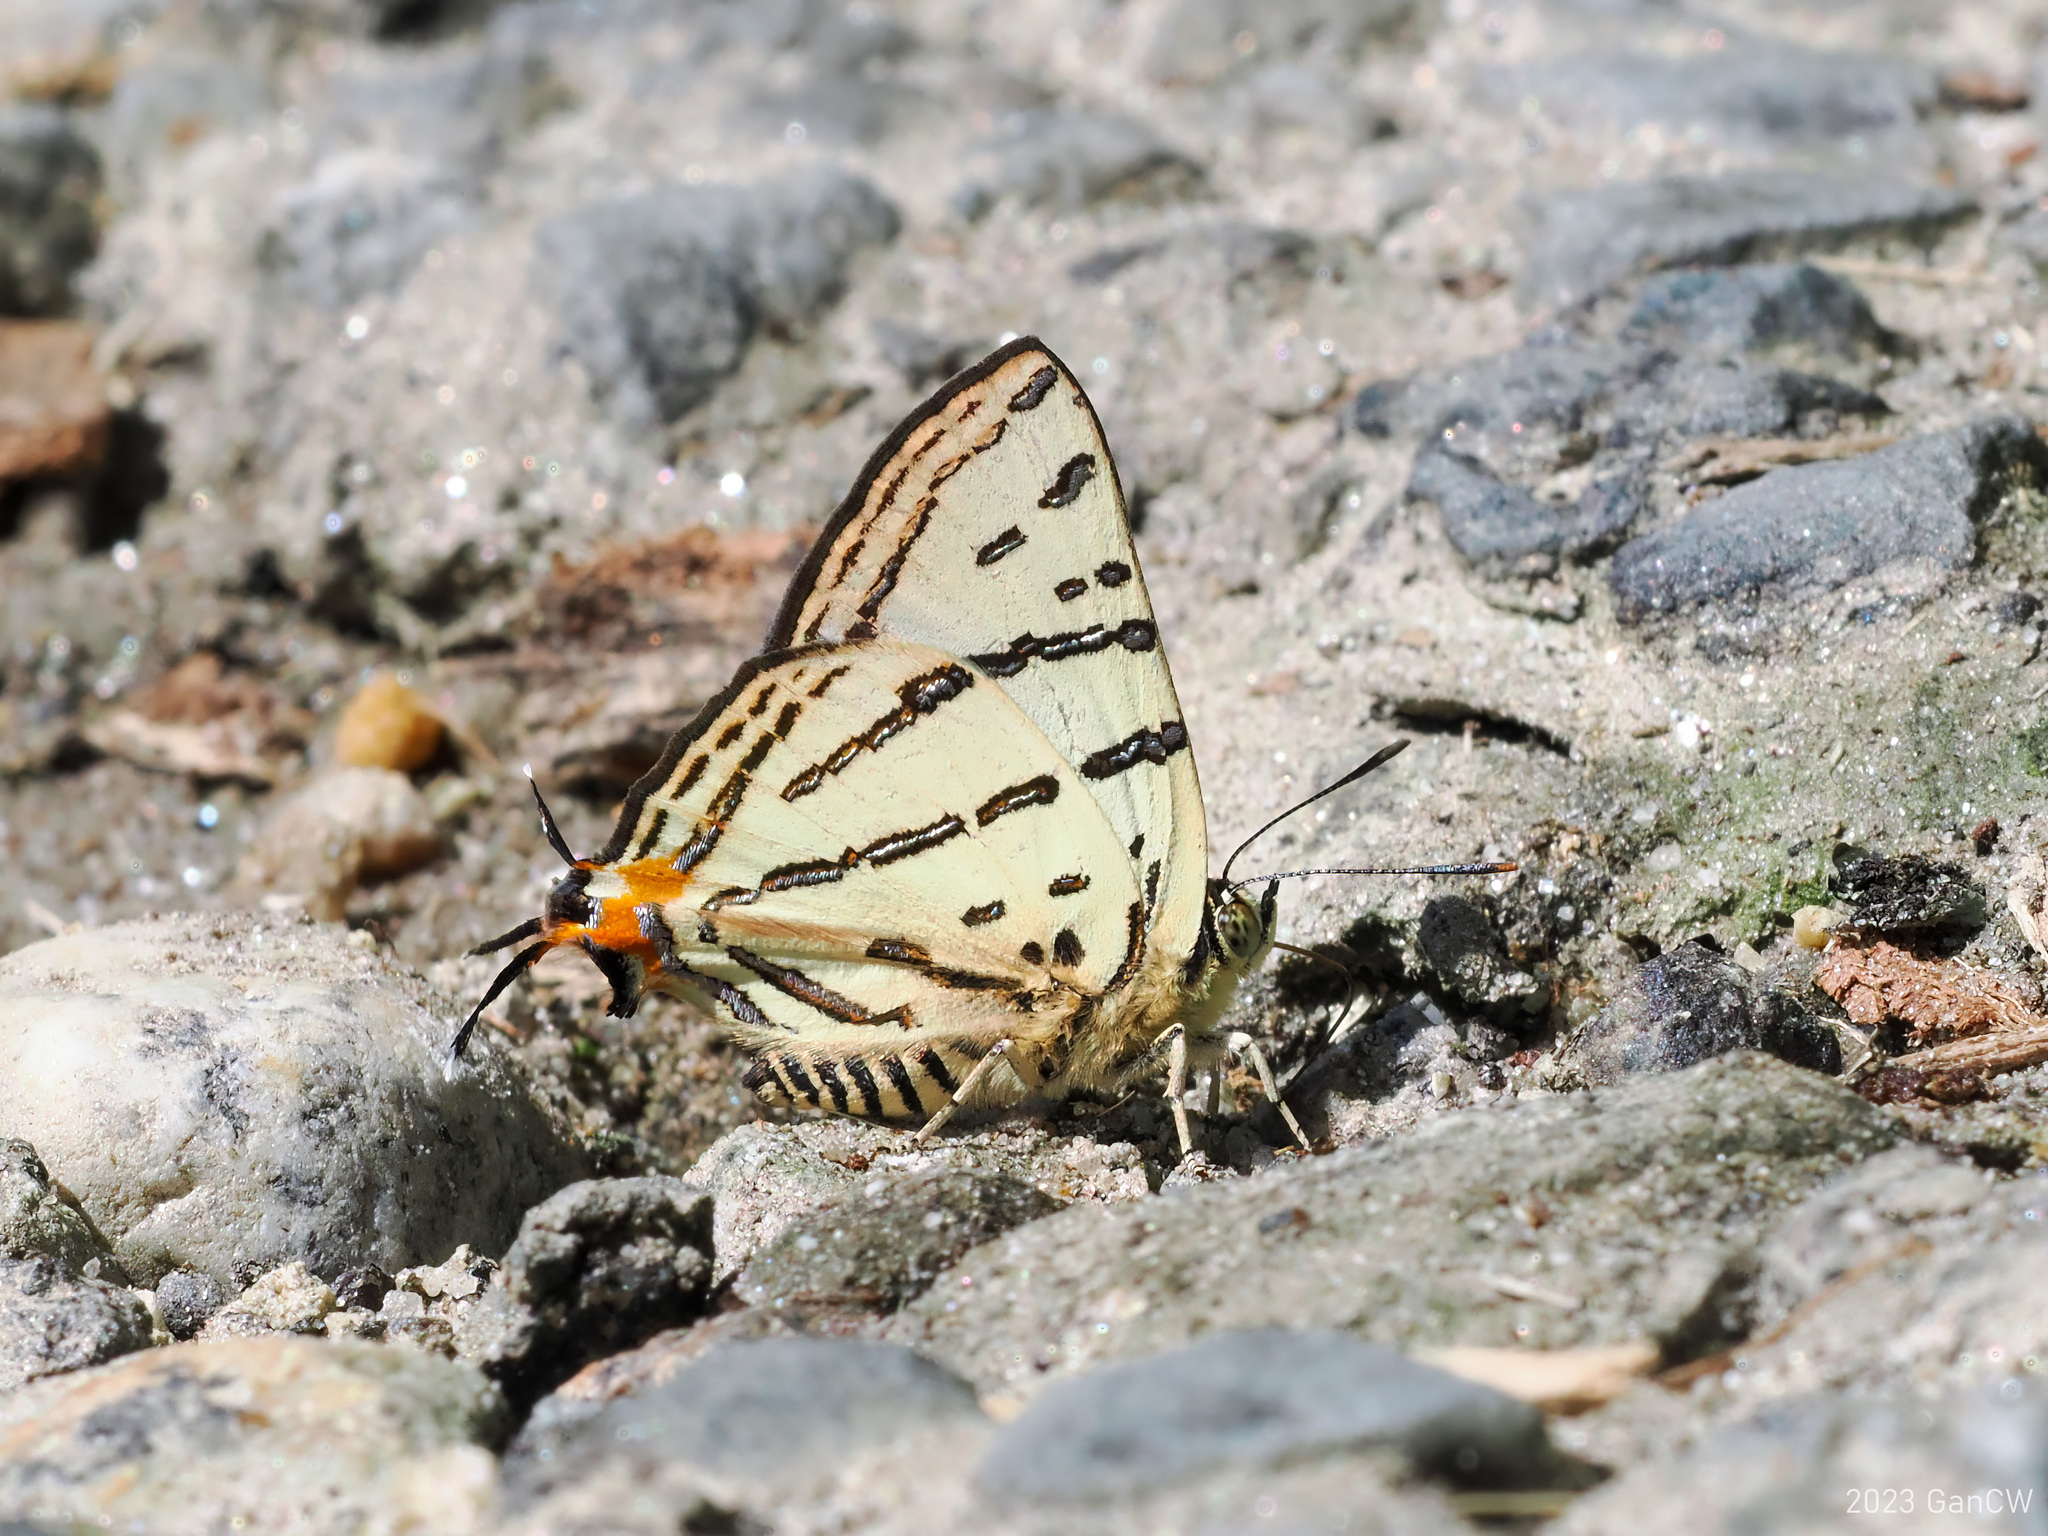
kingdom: Animalia
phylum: Arthropoda
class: Insecta
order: Lepidoptera
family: Lycaenidae
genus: Cigaritis
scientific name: Cigaritis
